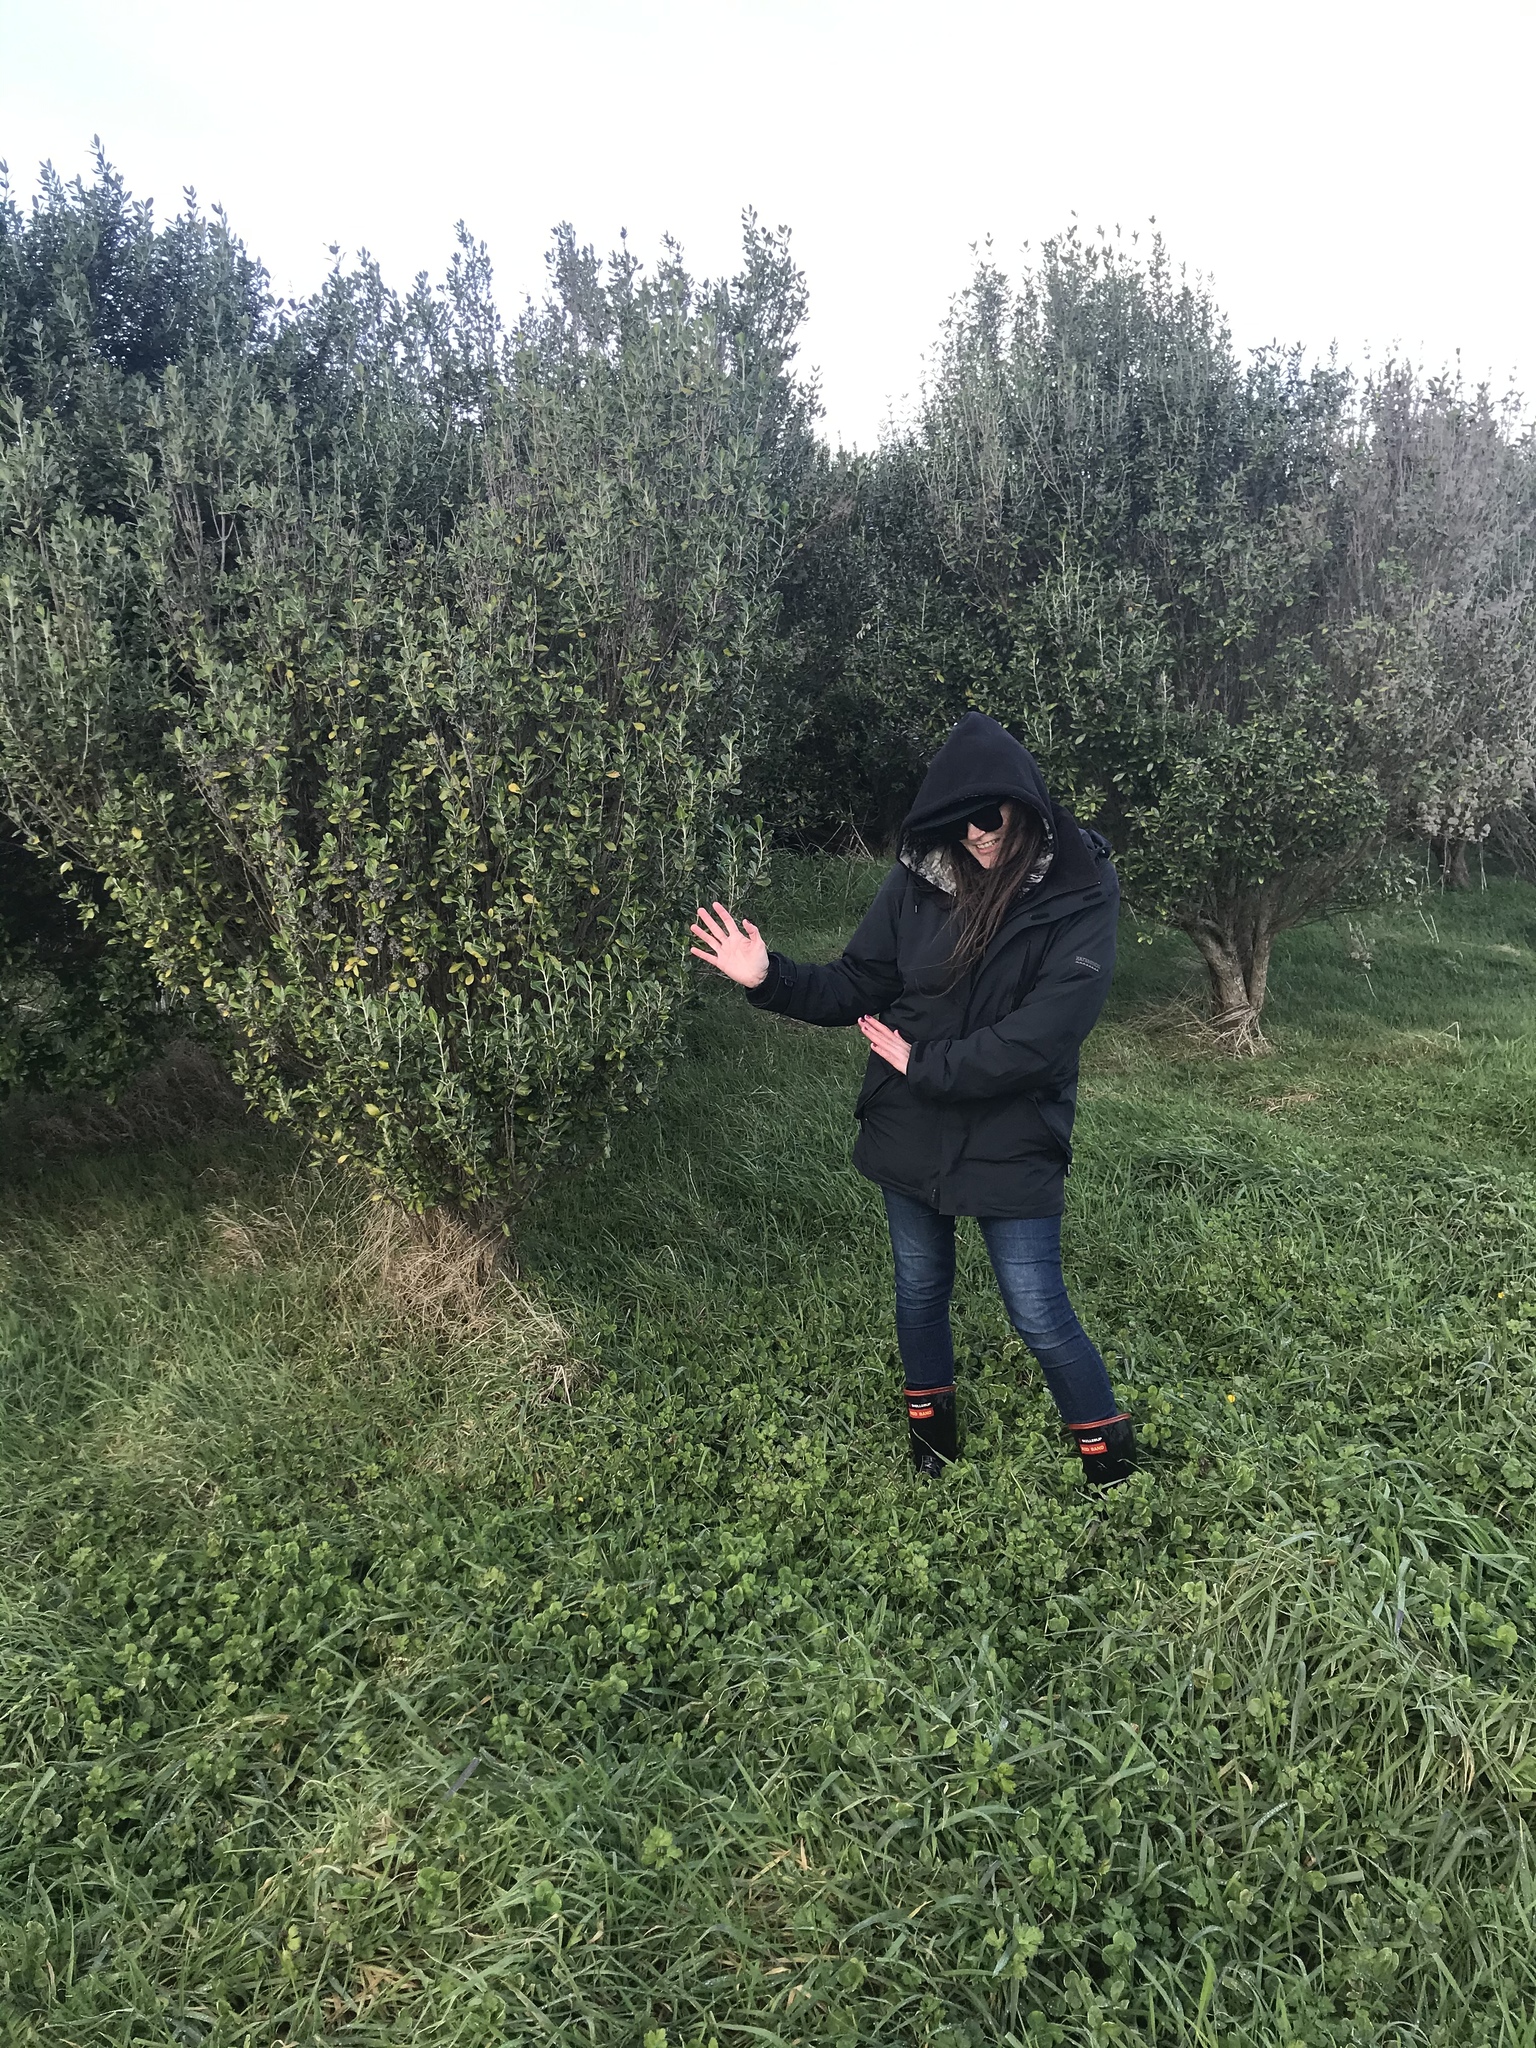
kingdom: Plantae
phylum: Tracheophyta
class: Magnoliopsida
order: Asterales
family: Asteraceae
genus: Olearia
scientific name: Olearia traversiorum
